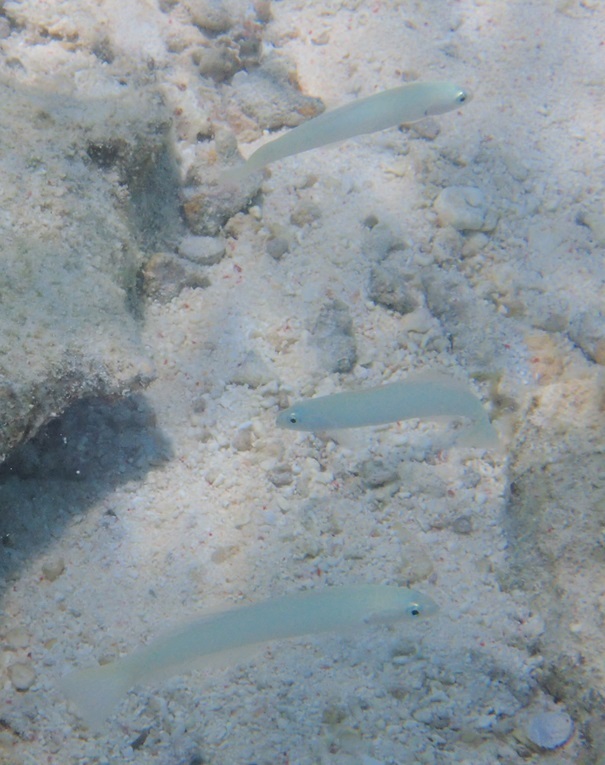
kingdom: Animalia
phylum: Chordata
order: Perciformes
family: Microdesmidae
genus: Ptereleotris
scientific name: Ptereleotris microlepis
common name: Blue gudgeon
